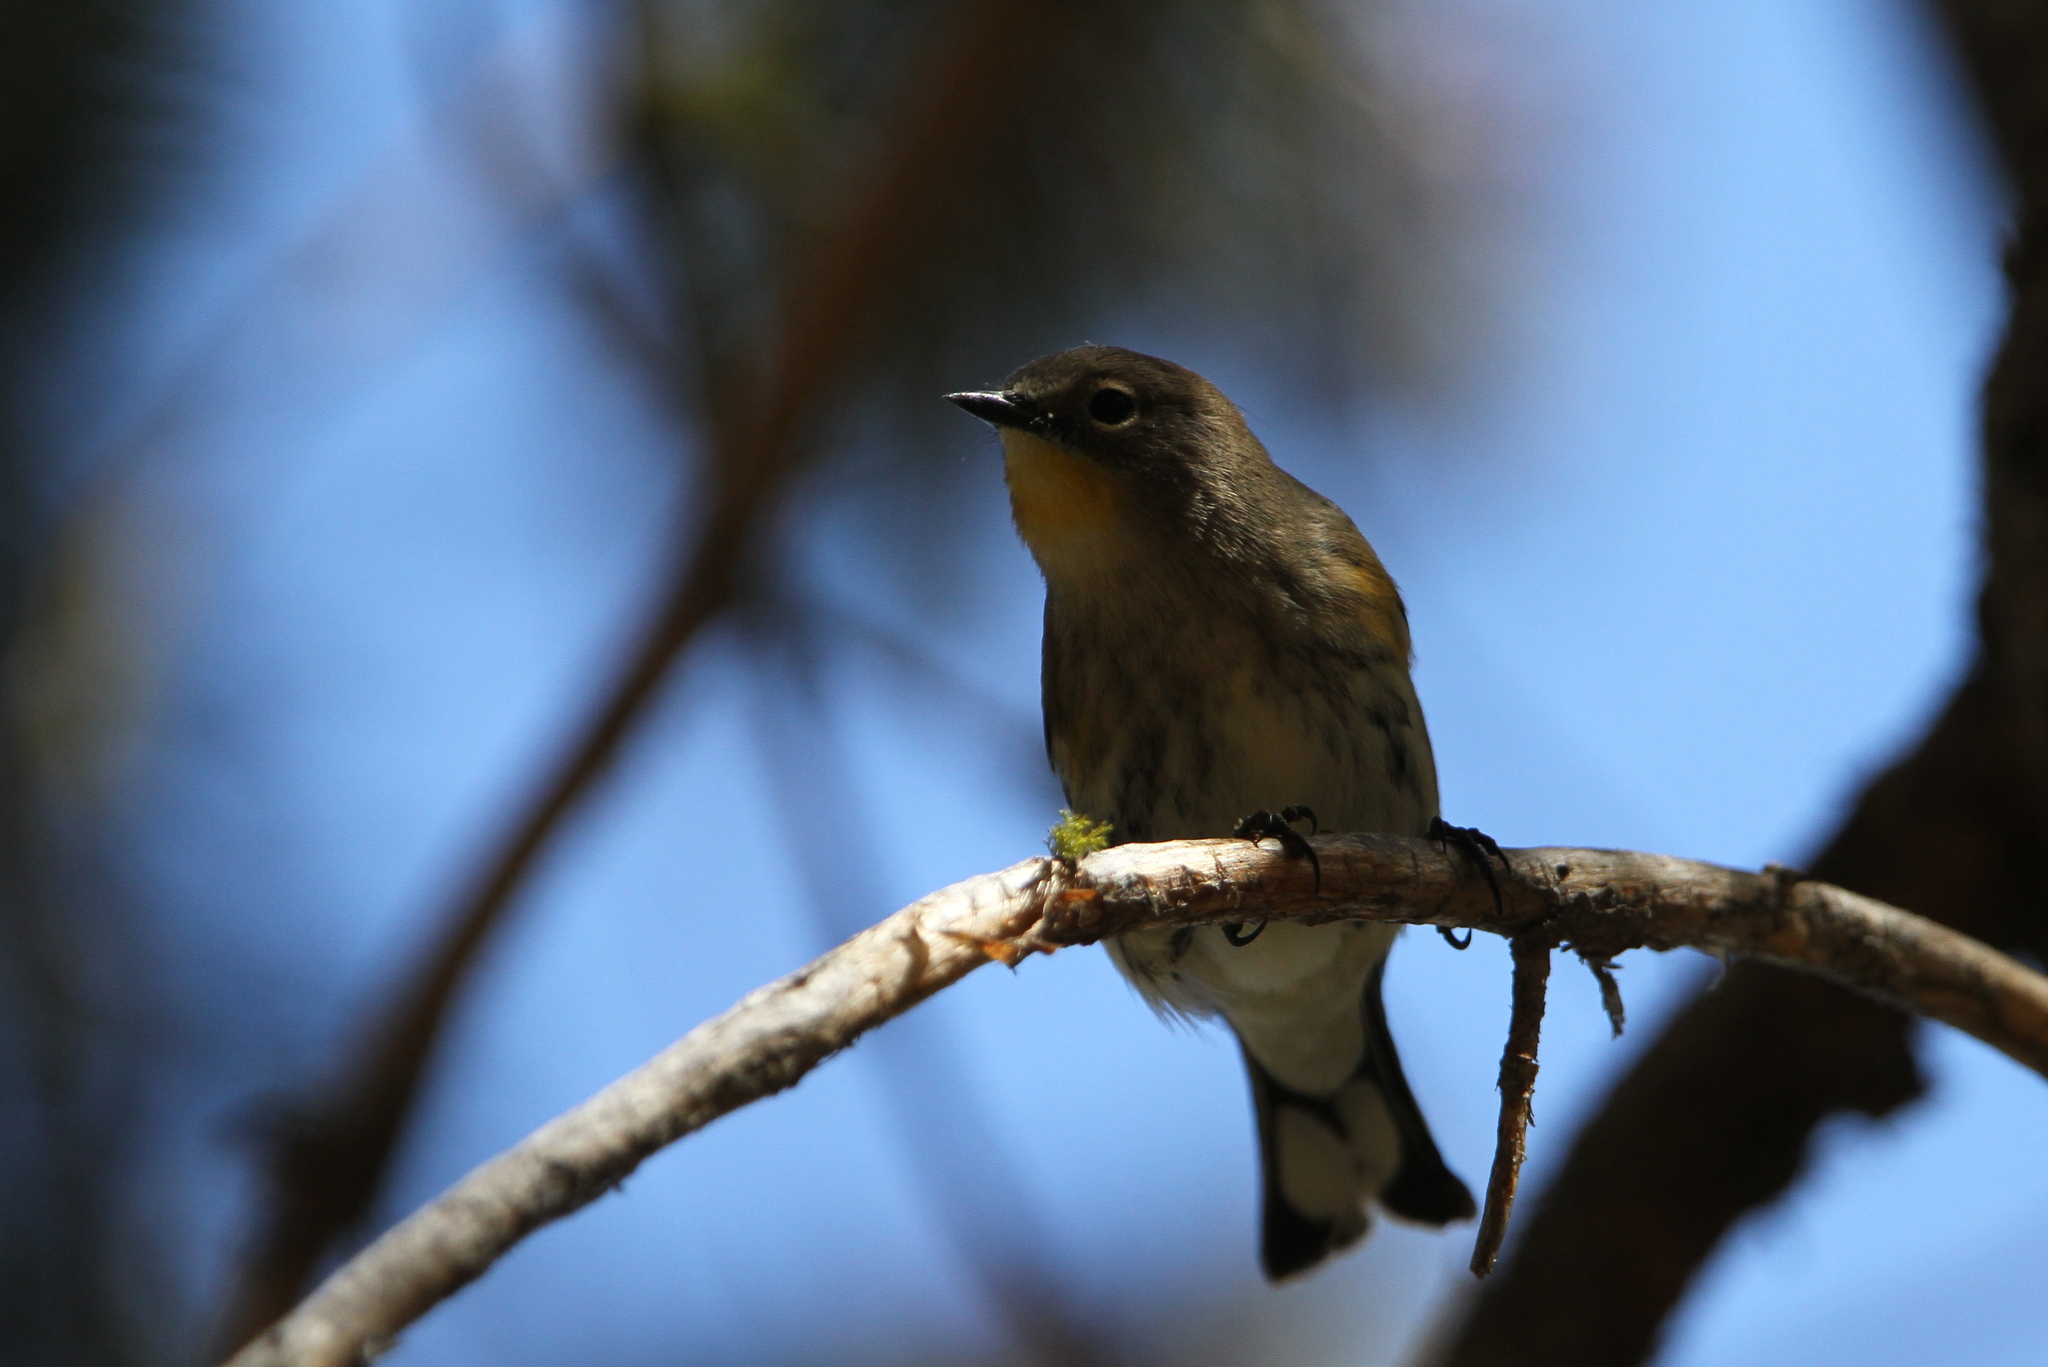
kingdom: Animalia
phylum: Chordata
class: Aves
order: Passeriformes
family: Parulidae
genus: Setophaga
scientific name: Setophaga coronata
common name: Myrtle warbler
